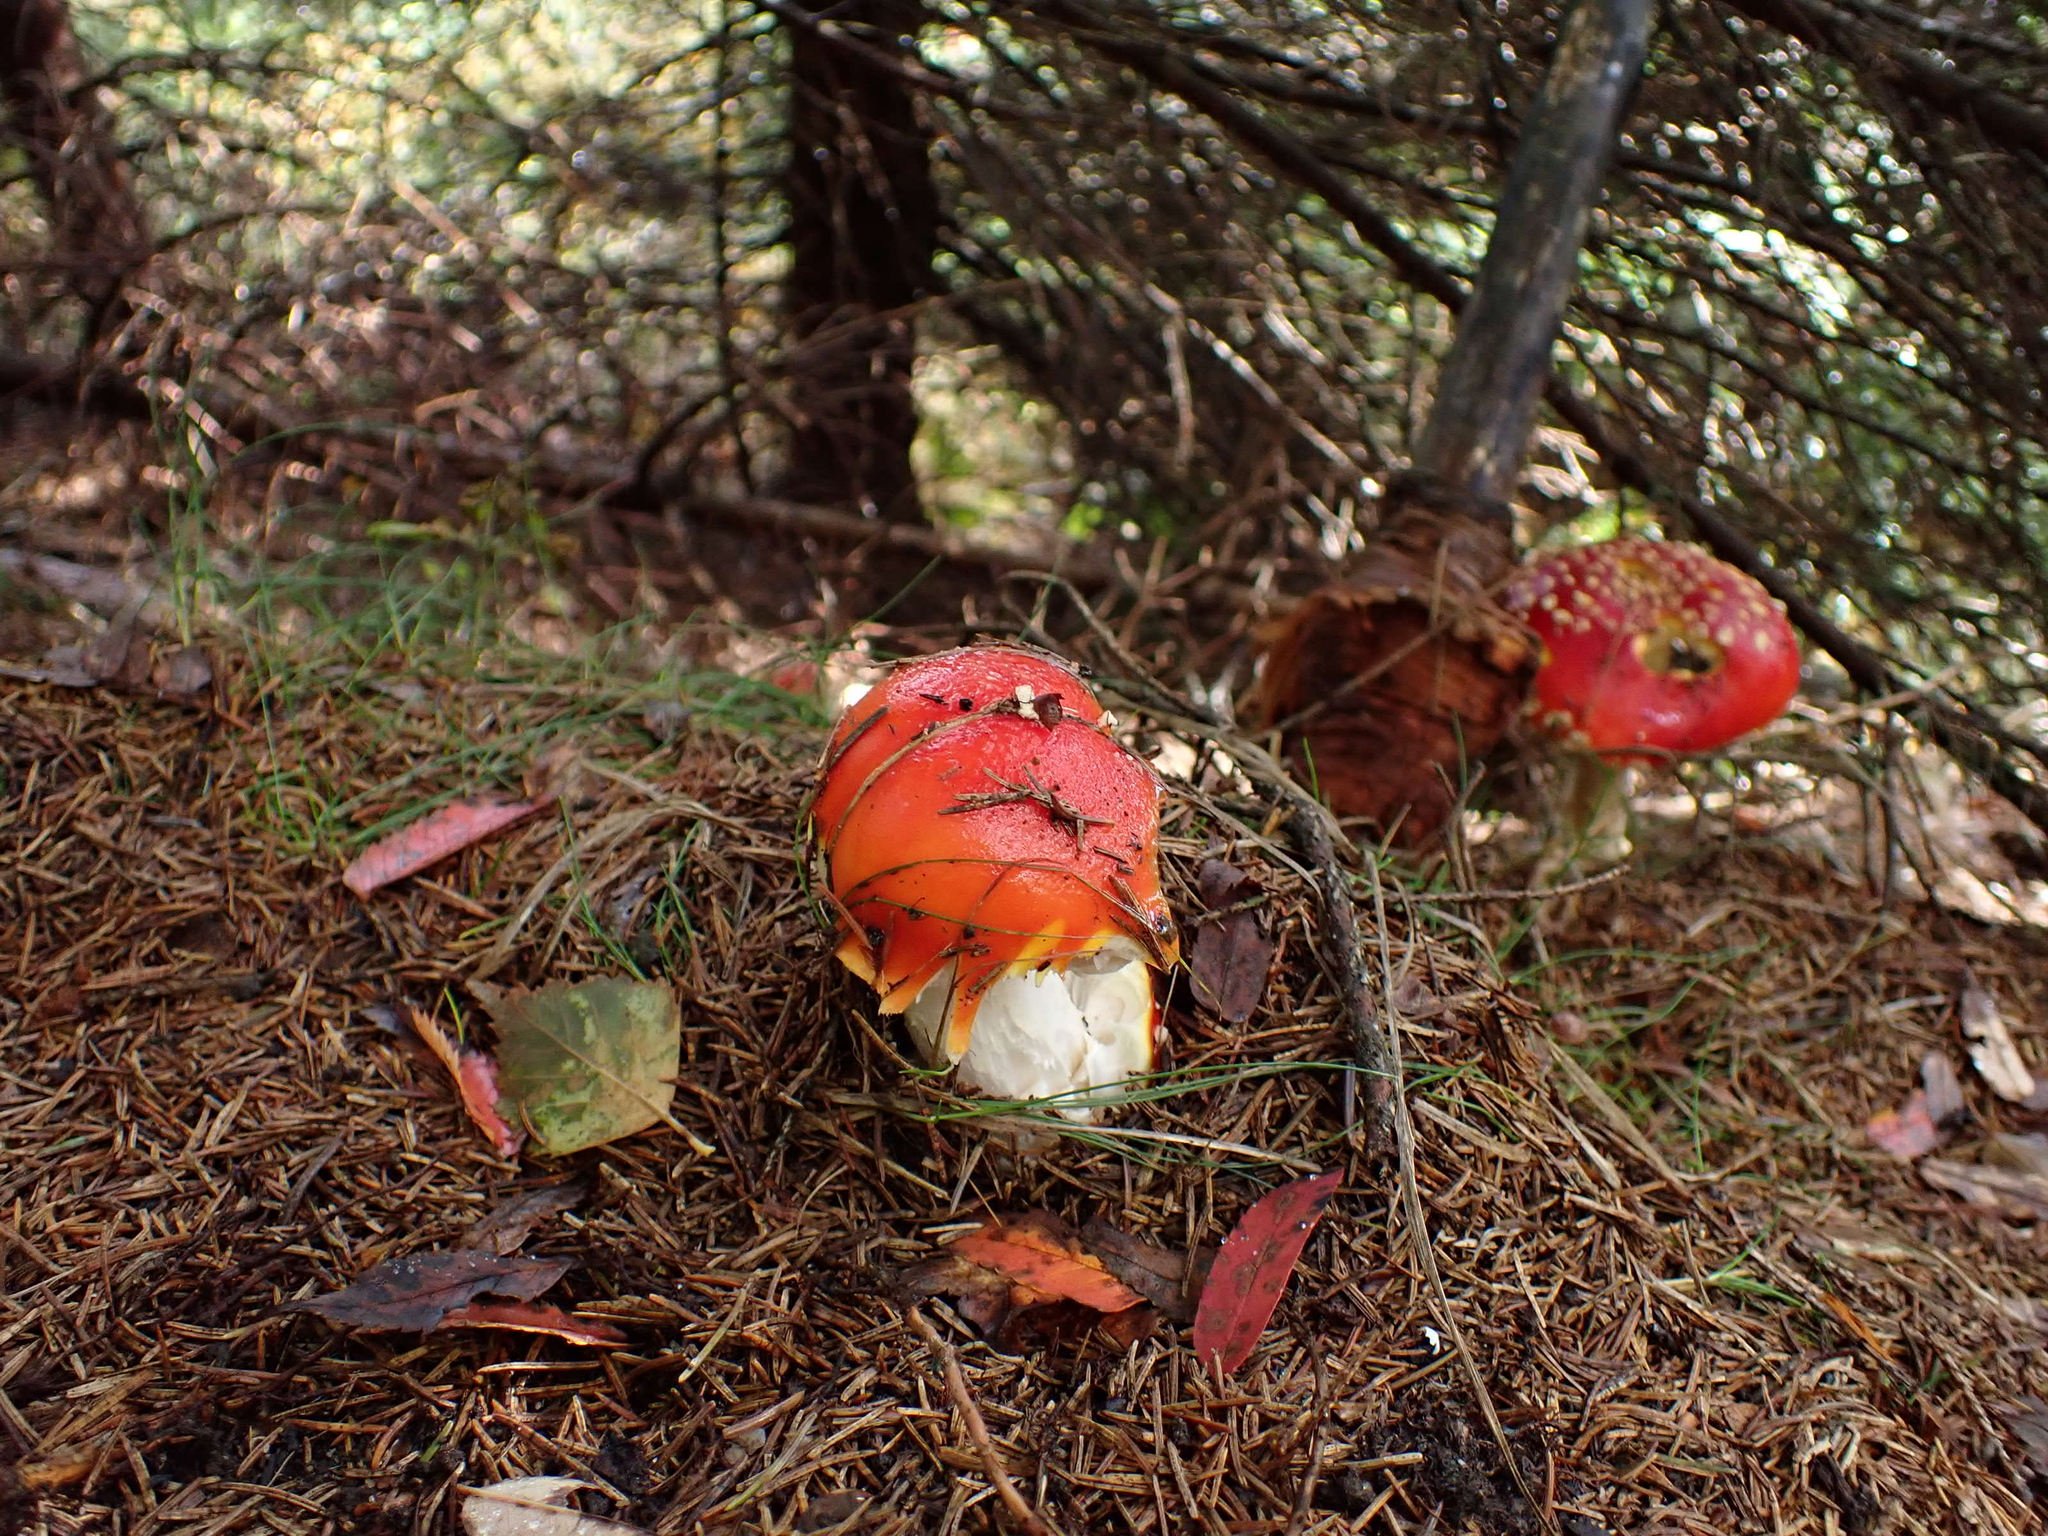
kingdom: Fungi
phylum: Basidiomycota
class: Agaricomycetes
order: Agaricales
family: Amanitaceae
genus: Amanita
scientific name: Amanita muscaria
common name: Fly agaric
